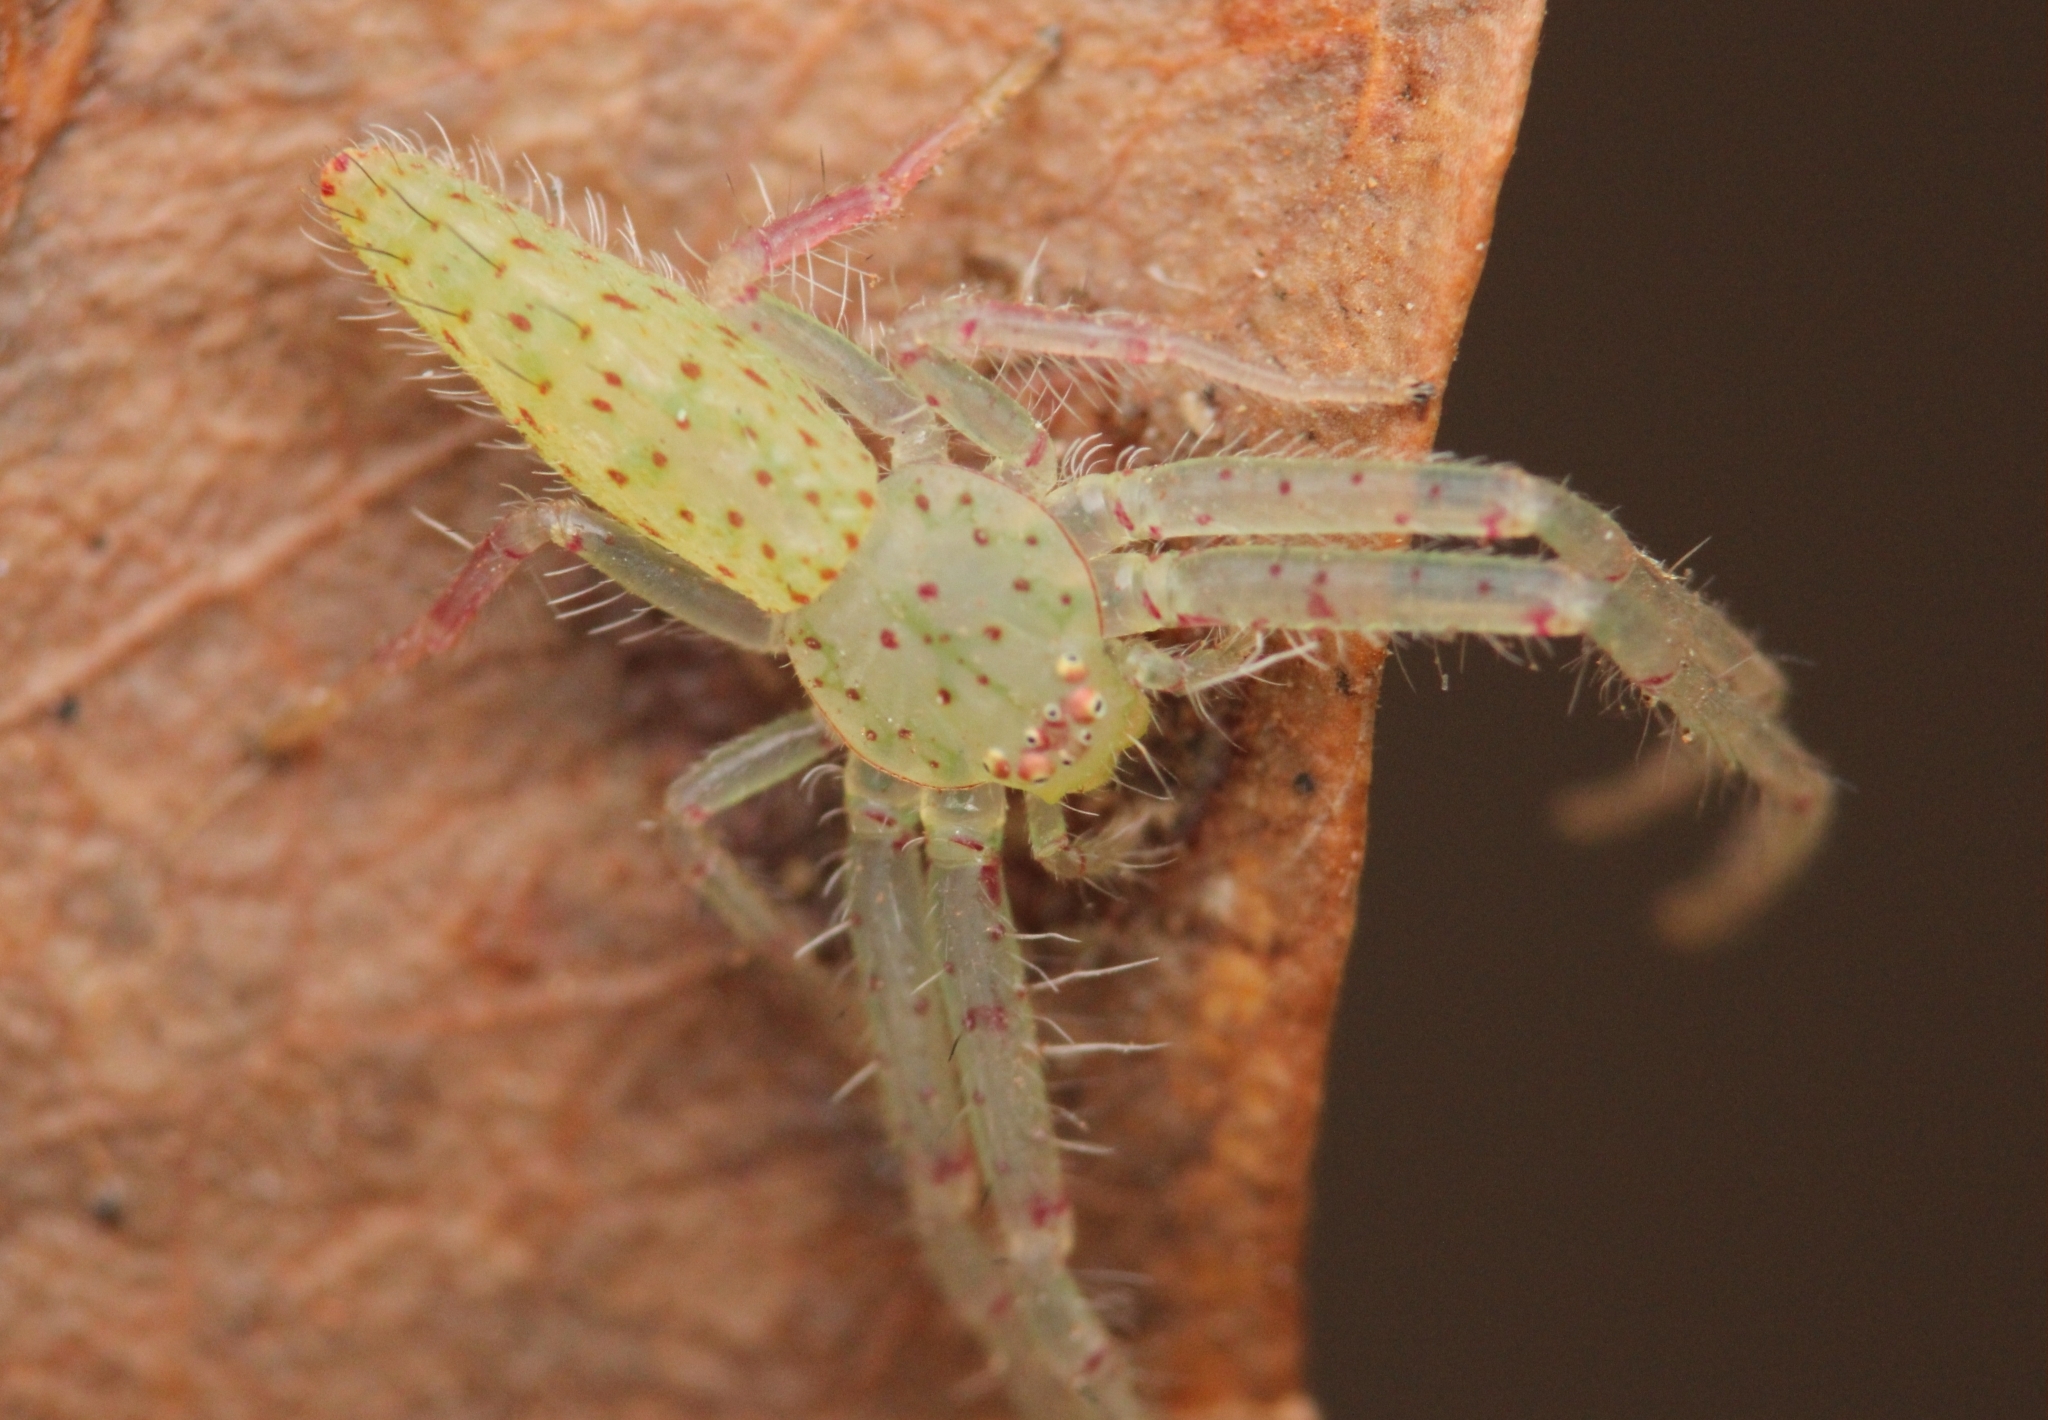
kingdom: Animalia
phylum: Arthropoda
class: Arachnida
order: Araneae
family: Thomisidae
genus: Oxytate
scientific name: Oxytate argenteooculata
